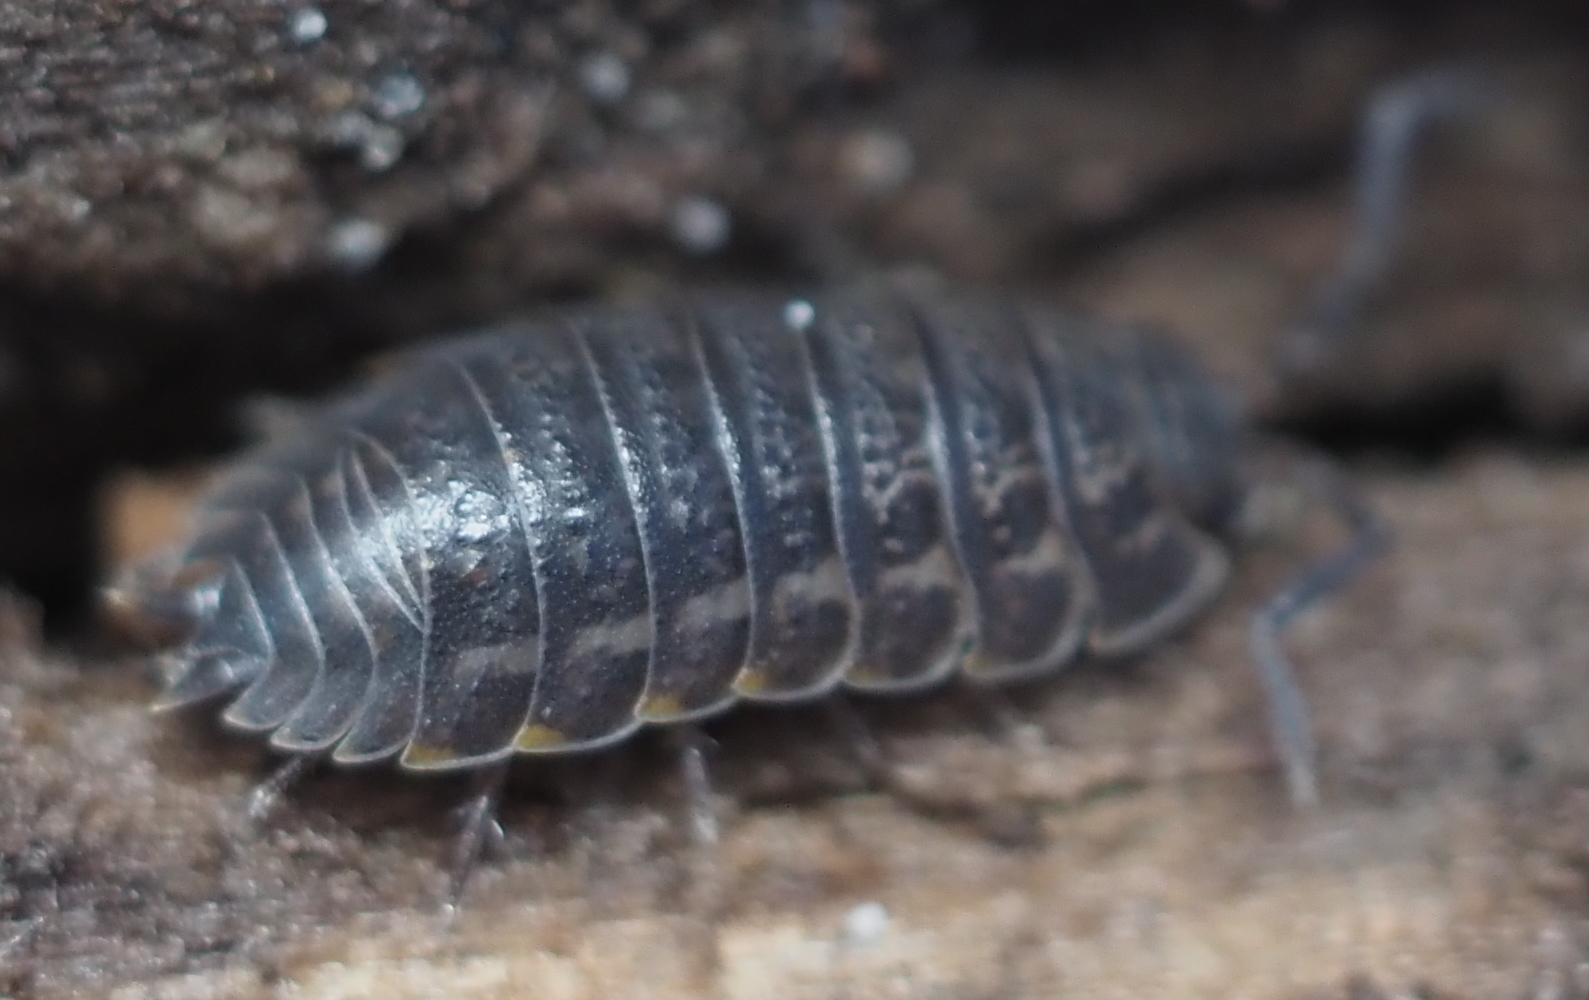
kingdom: Animalia
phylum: Arthropoda
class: Malacostraca
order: Isopoda
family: Trachelipodidae
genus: Trachelipus
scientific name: Trachelipus rathkii
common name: Isopod
